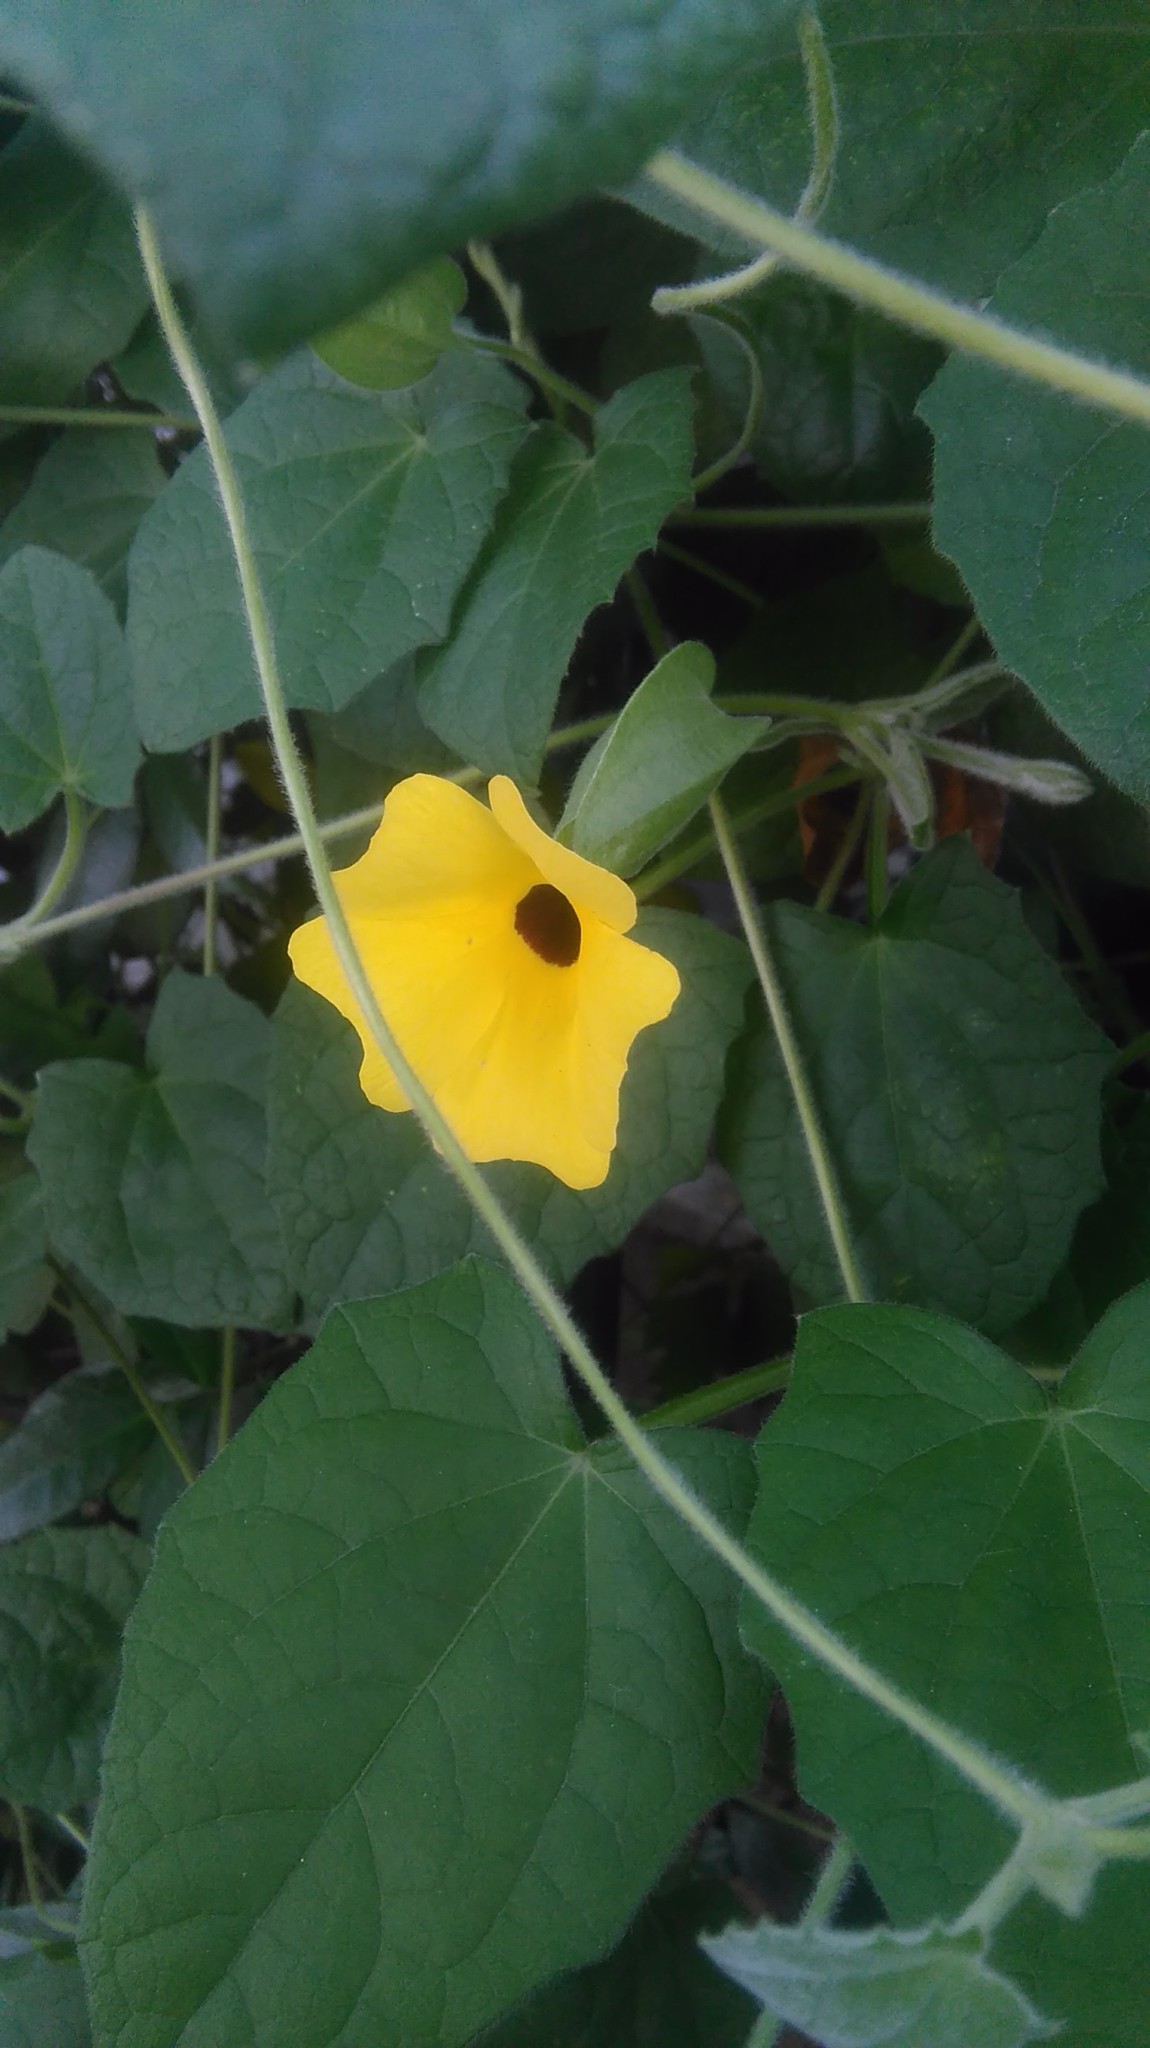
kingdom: Plantae
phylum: Tracheophyta
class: Magnoliopsida
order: Lamiales
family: Acanthaceae
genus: Thunbergia
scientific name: Thunbergia alata
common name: Blackeyed susan vine
